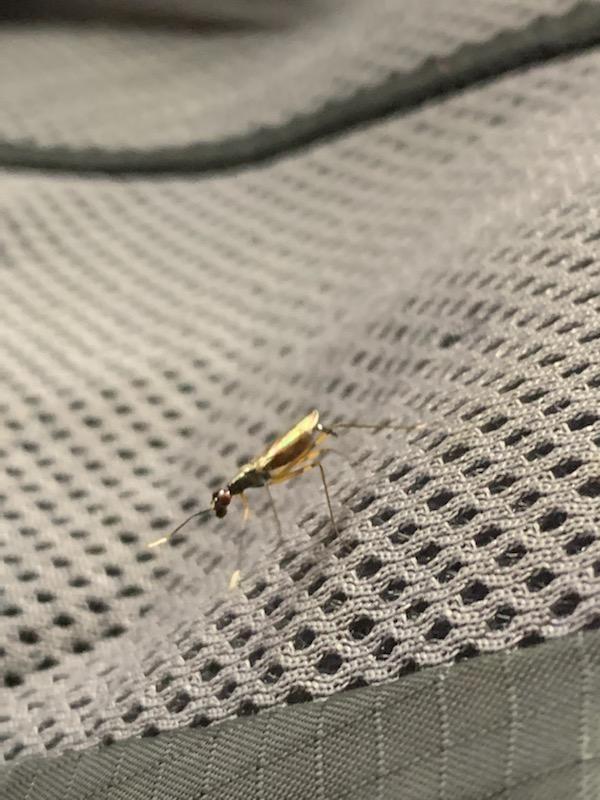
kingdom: Animalia
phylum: Arthropoda
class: Insecta
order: Diptera
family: Micropezidae
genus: Rainieria
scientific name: Rainieria antennaepes
